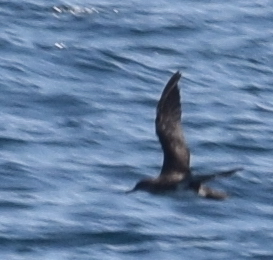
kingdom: Animalia
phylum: Chordata
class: Aves
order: Procellariiformes
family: Procellariidae
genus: Puffinus
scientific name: Puffinus opisthomelas
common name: Black-vented shearwater
